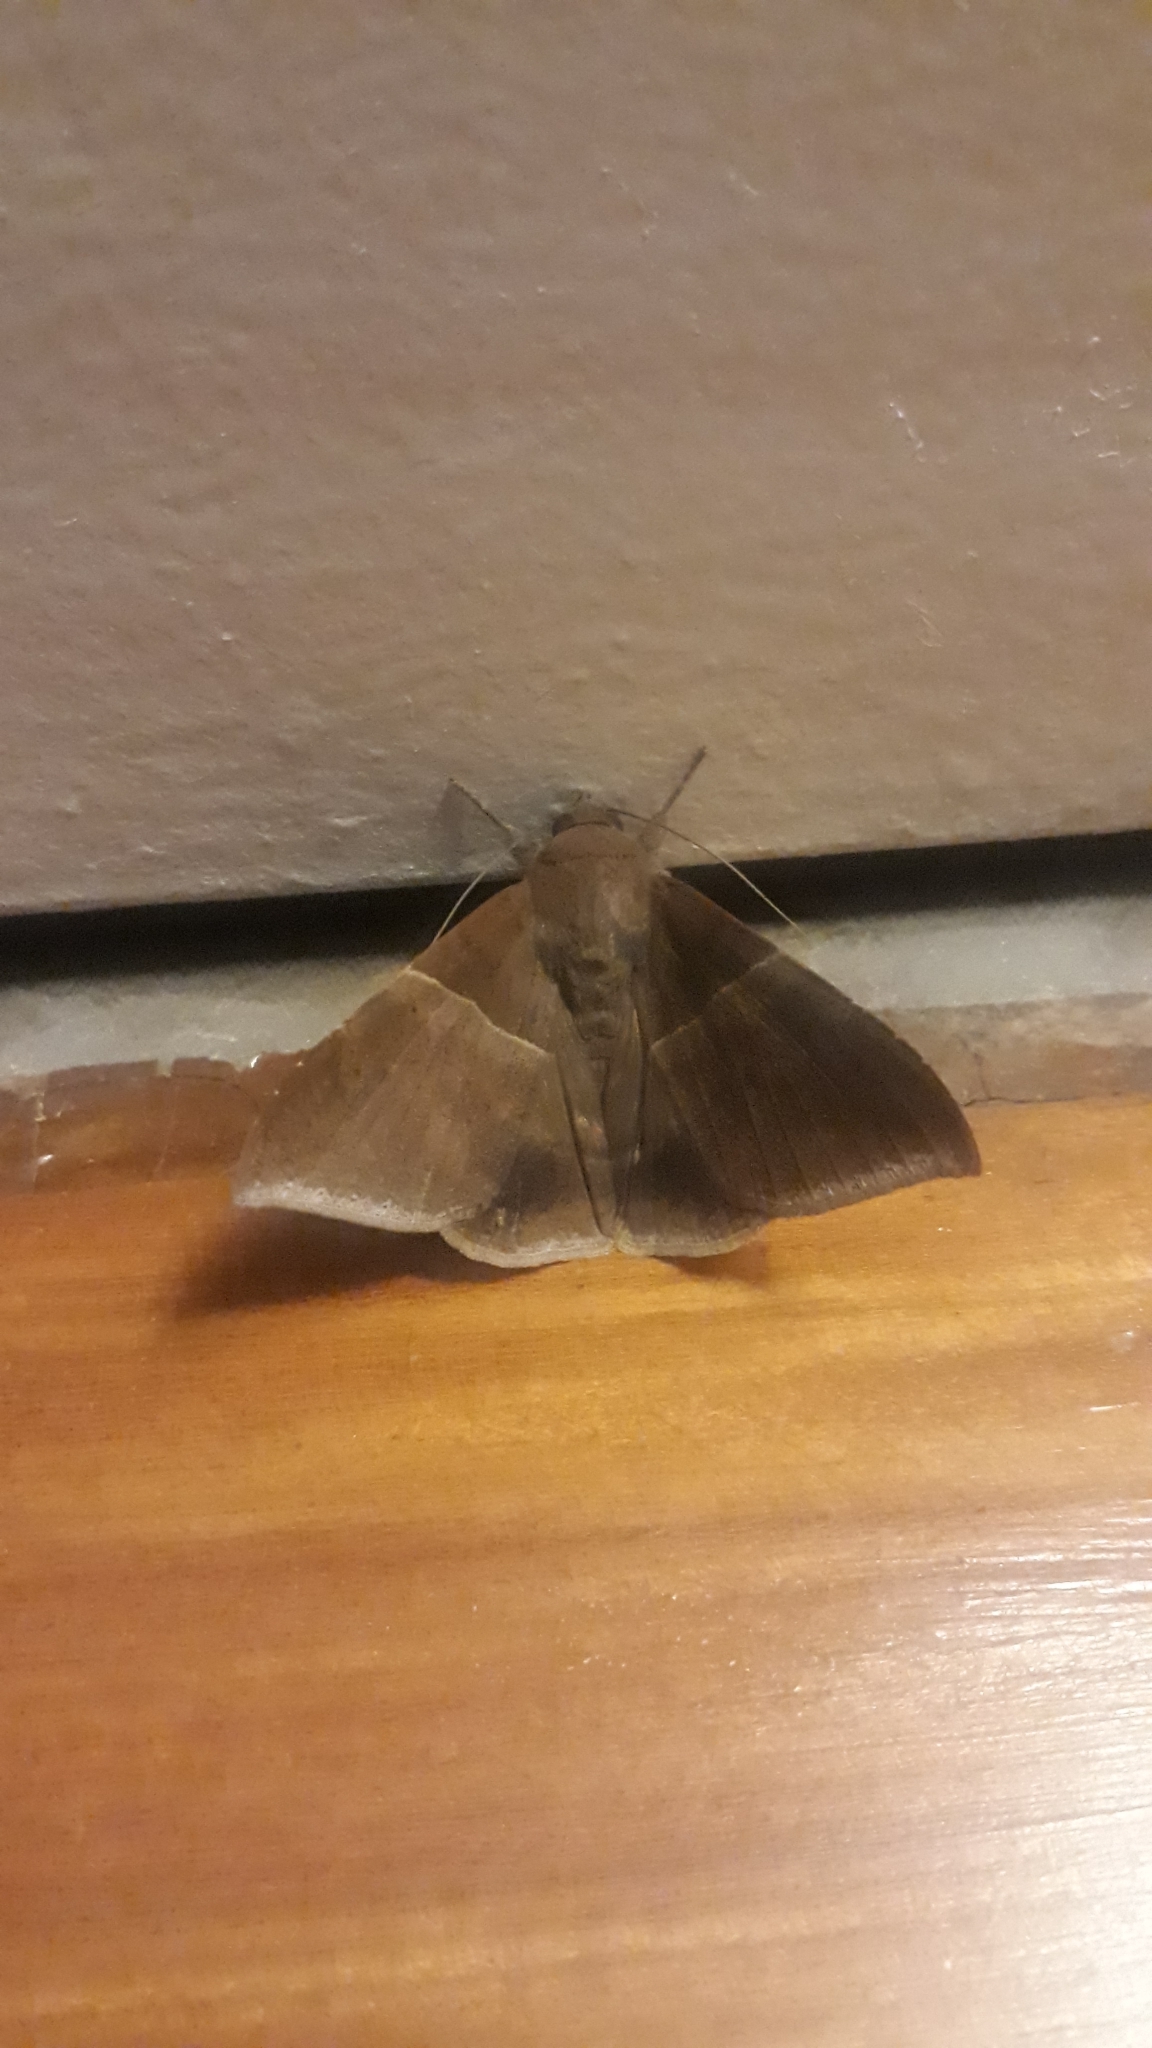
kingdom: Animalia
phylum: Arthropoda
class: Insecta
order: Lepidoptera
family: Erebidae
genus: Ophisma
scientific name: Ophisma tropicalis
